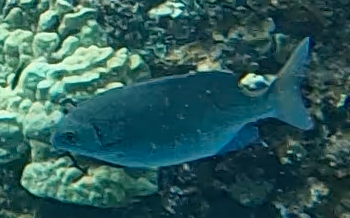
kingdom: Animalia
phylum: Chordata
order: Perciformes
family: Kyphosidae
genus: Kyphosus
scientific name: Kyphosus cinerascens
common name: Topsail drummer
